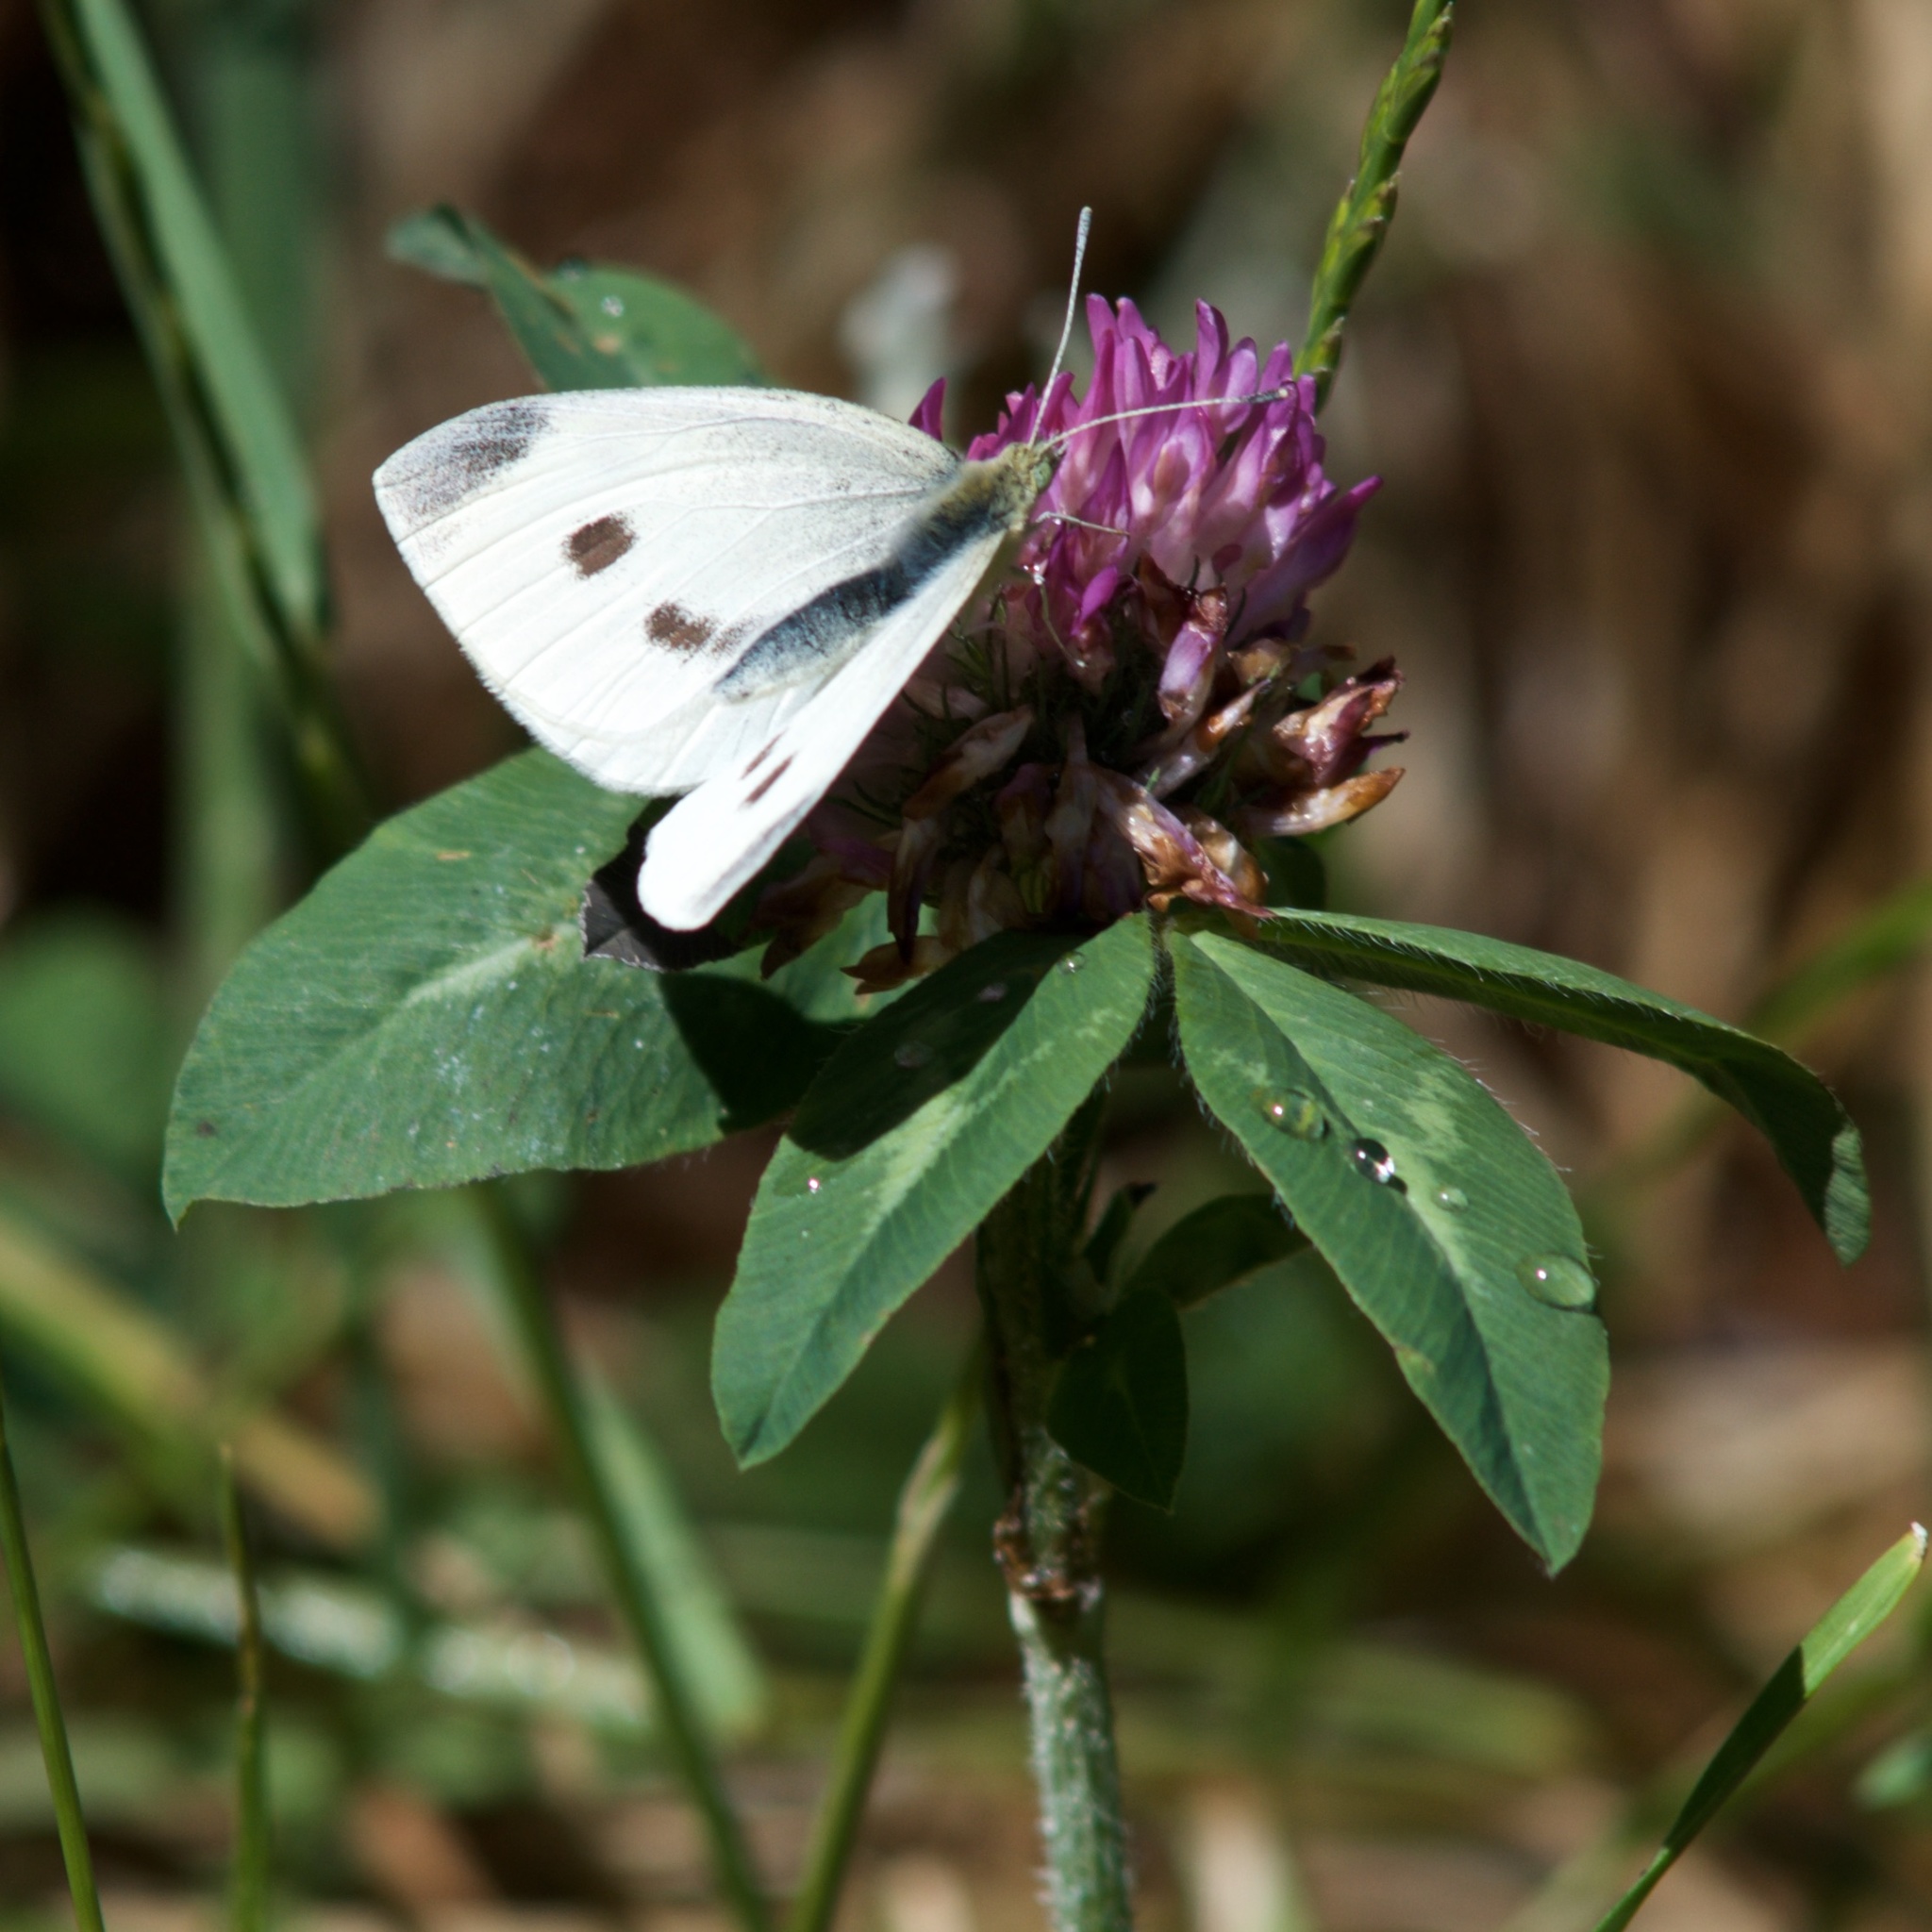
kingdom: Animalia
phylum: Arthropoda
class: Insecta
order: Lepidoptera
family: Pieridae
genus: Pieris
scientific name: Pieris rapae
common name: Small white
